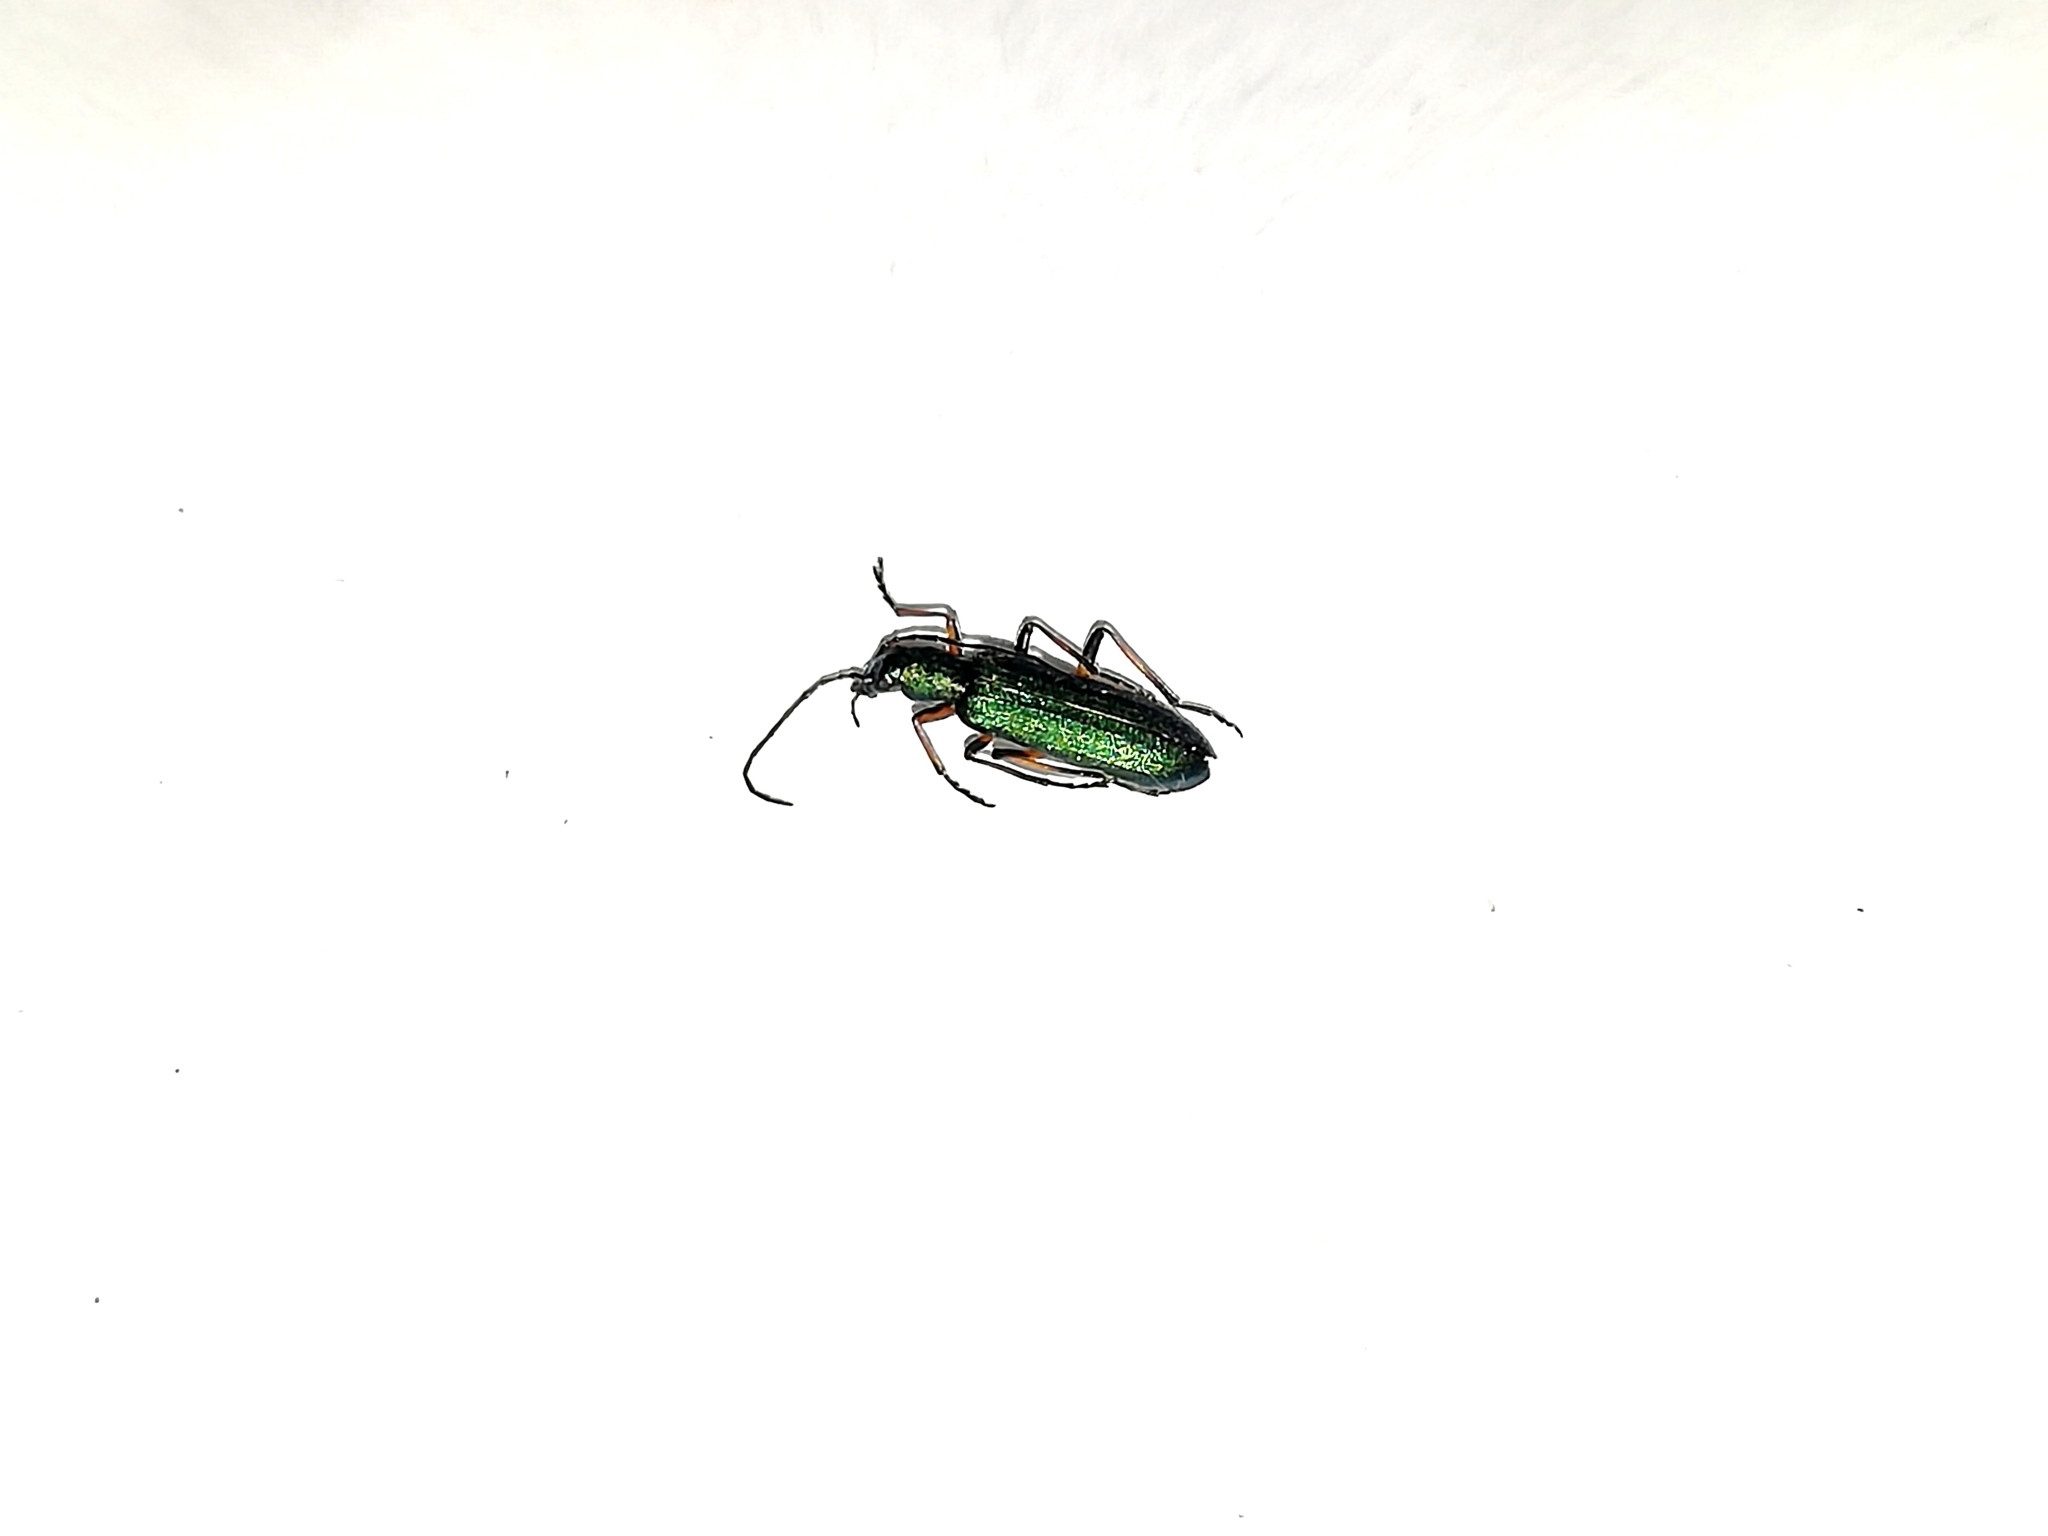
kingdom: Animalia
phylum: Arthropoda
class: Insecta
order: Coleoptera
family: Oedemeridae
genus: Chrysanthia
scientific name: Chrysanthia geniculata
